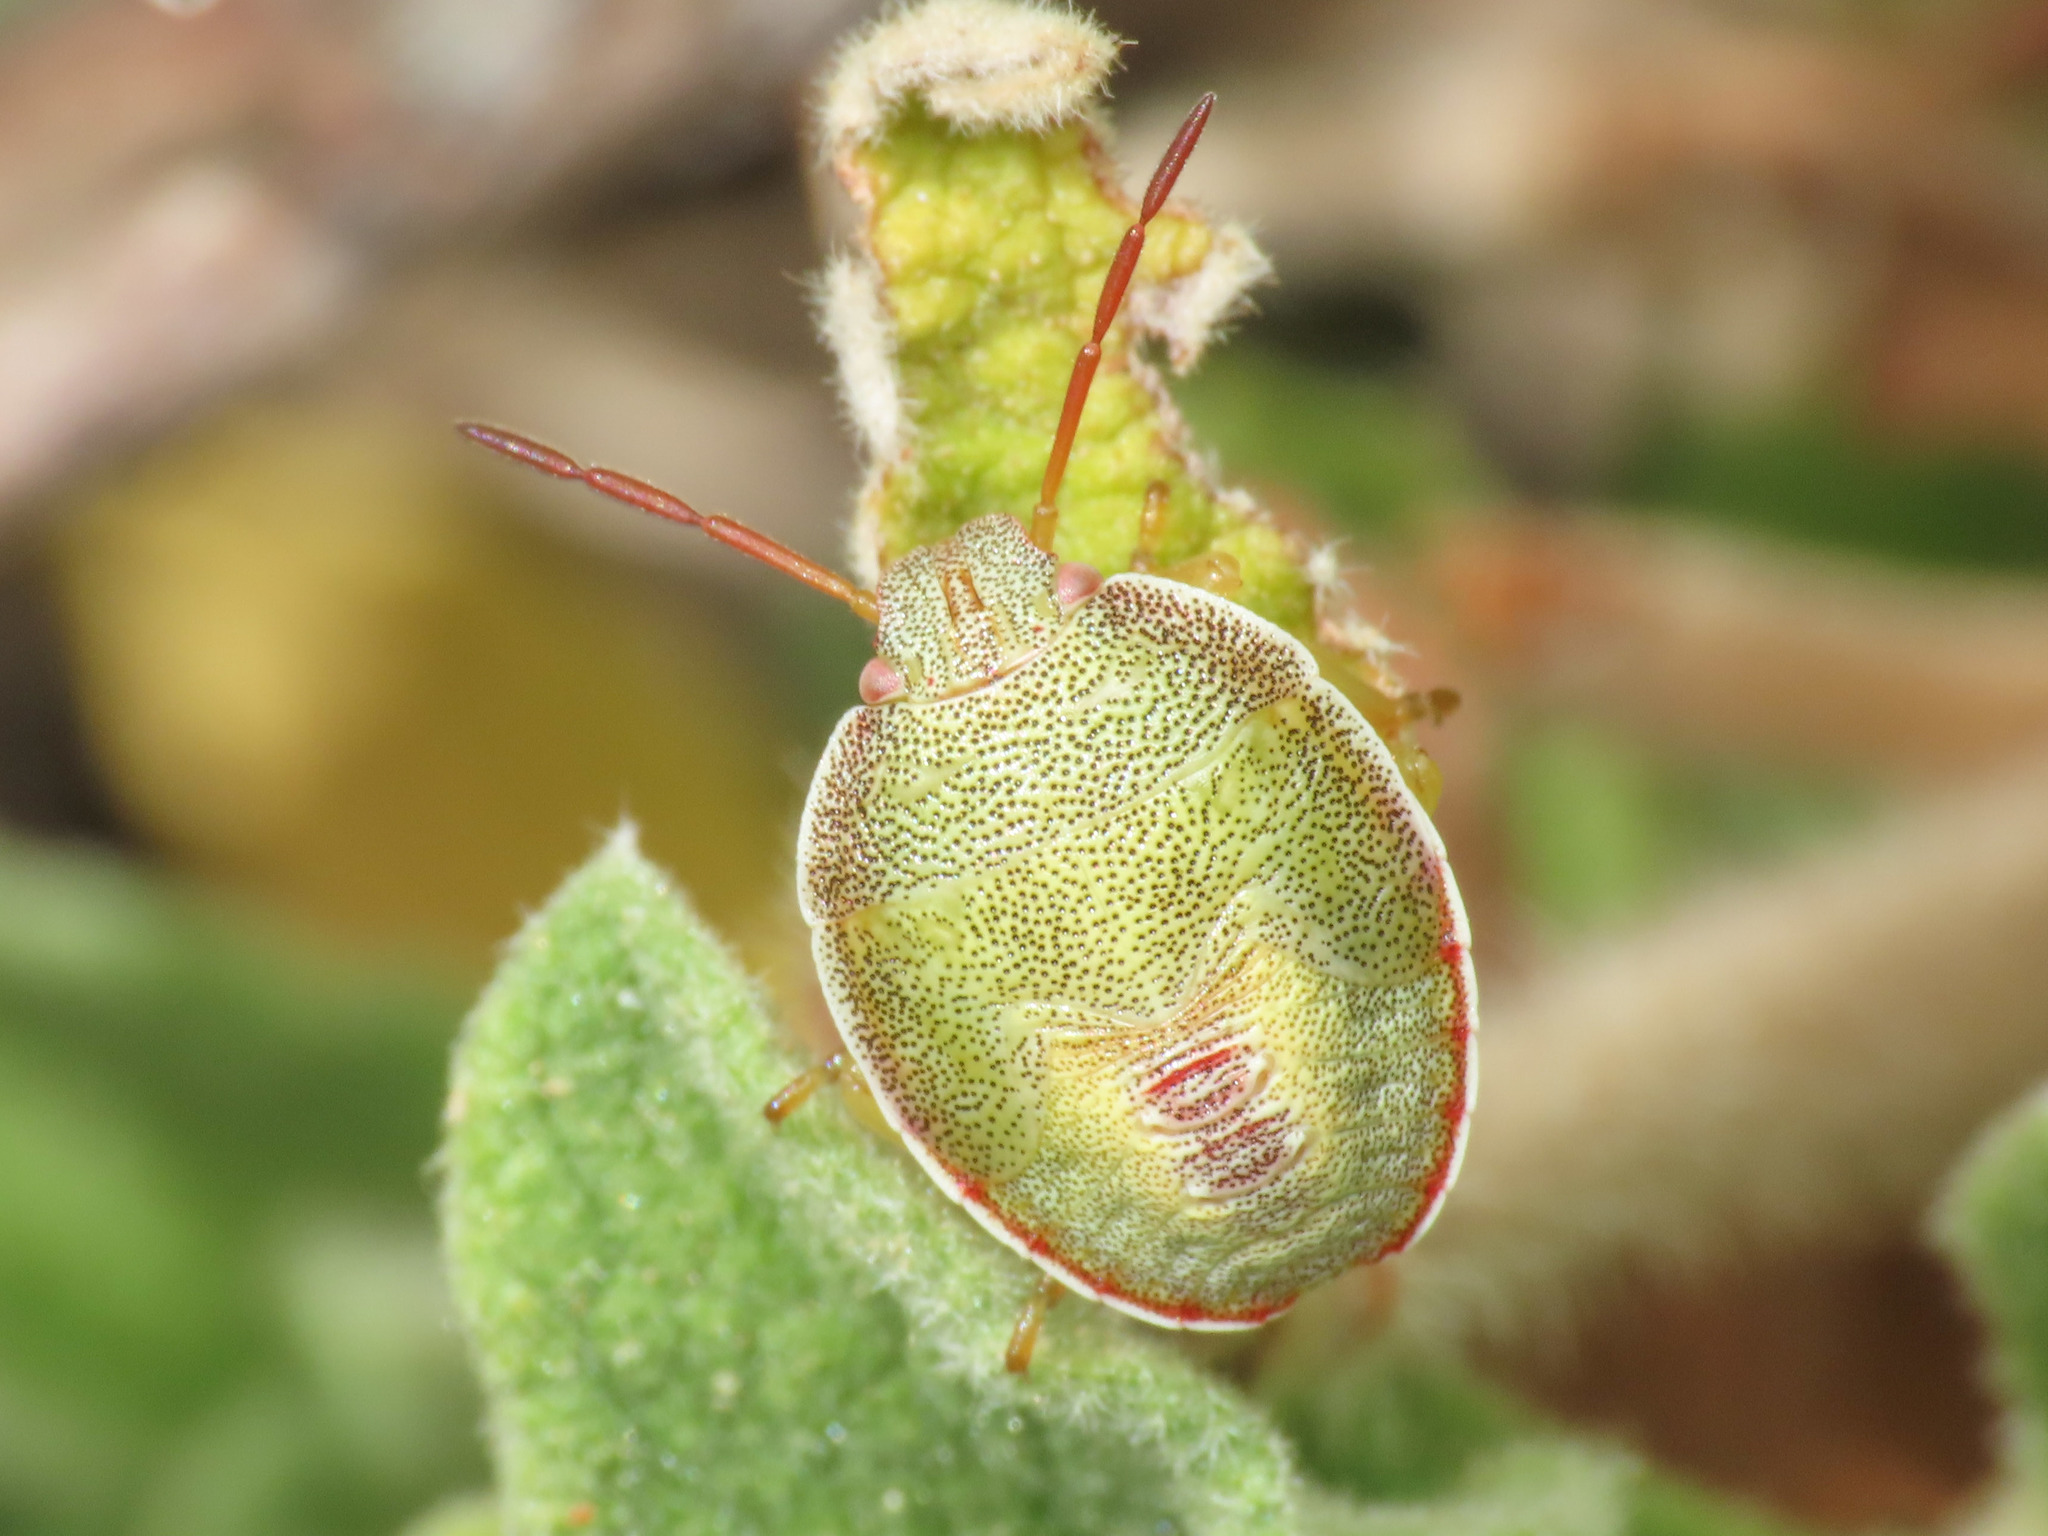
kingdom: Animalia
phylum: Arthropoda
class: Insecta
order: Hemiptera
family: Pentatomidae
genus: Piezodorus
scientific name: Piezodorus lituratus
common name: Stink bug
